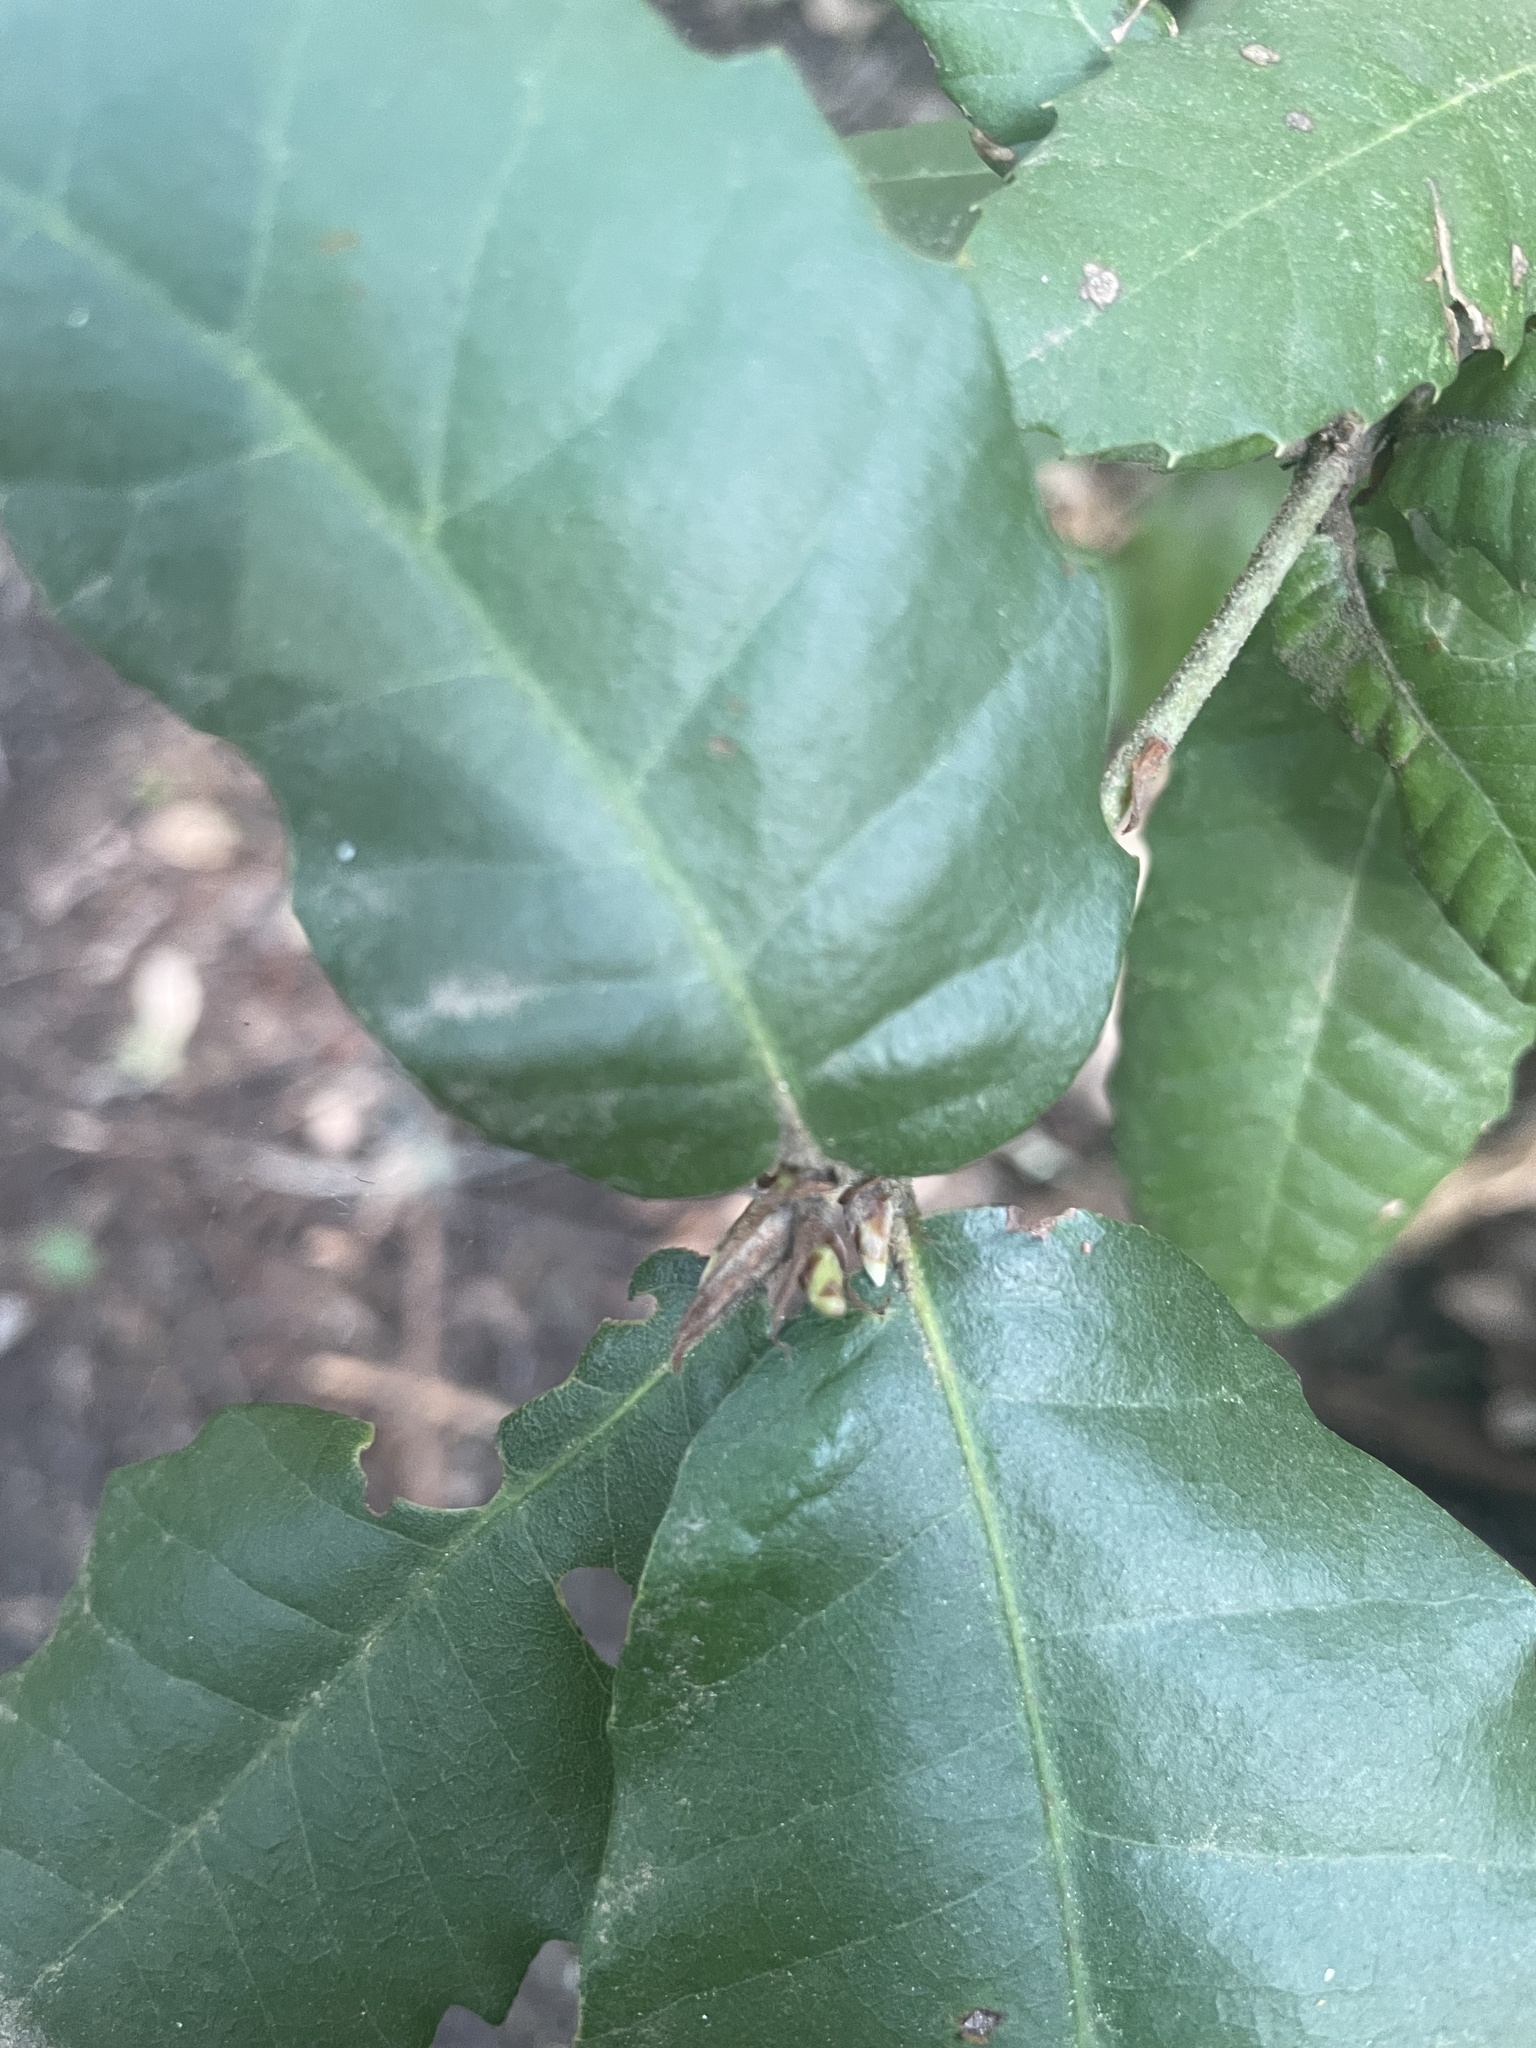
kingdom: Plantae
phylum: Tracheophyta
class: Magnoliopsida
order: Fagales
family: Fagaceae
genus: Notholithocarpus
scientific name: Notholithocarpus densiflorus
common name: Tan bark oak
